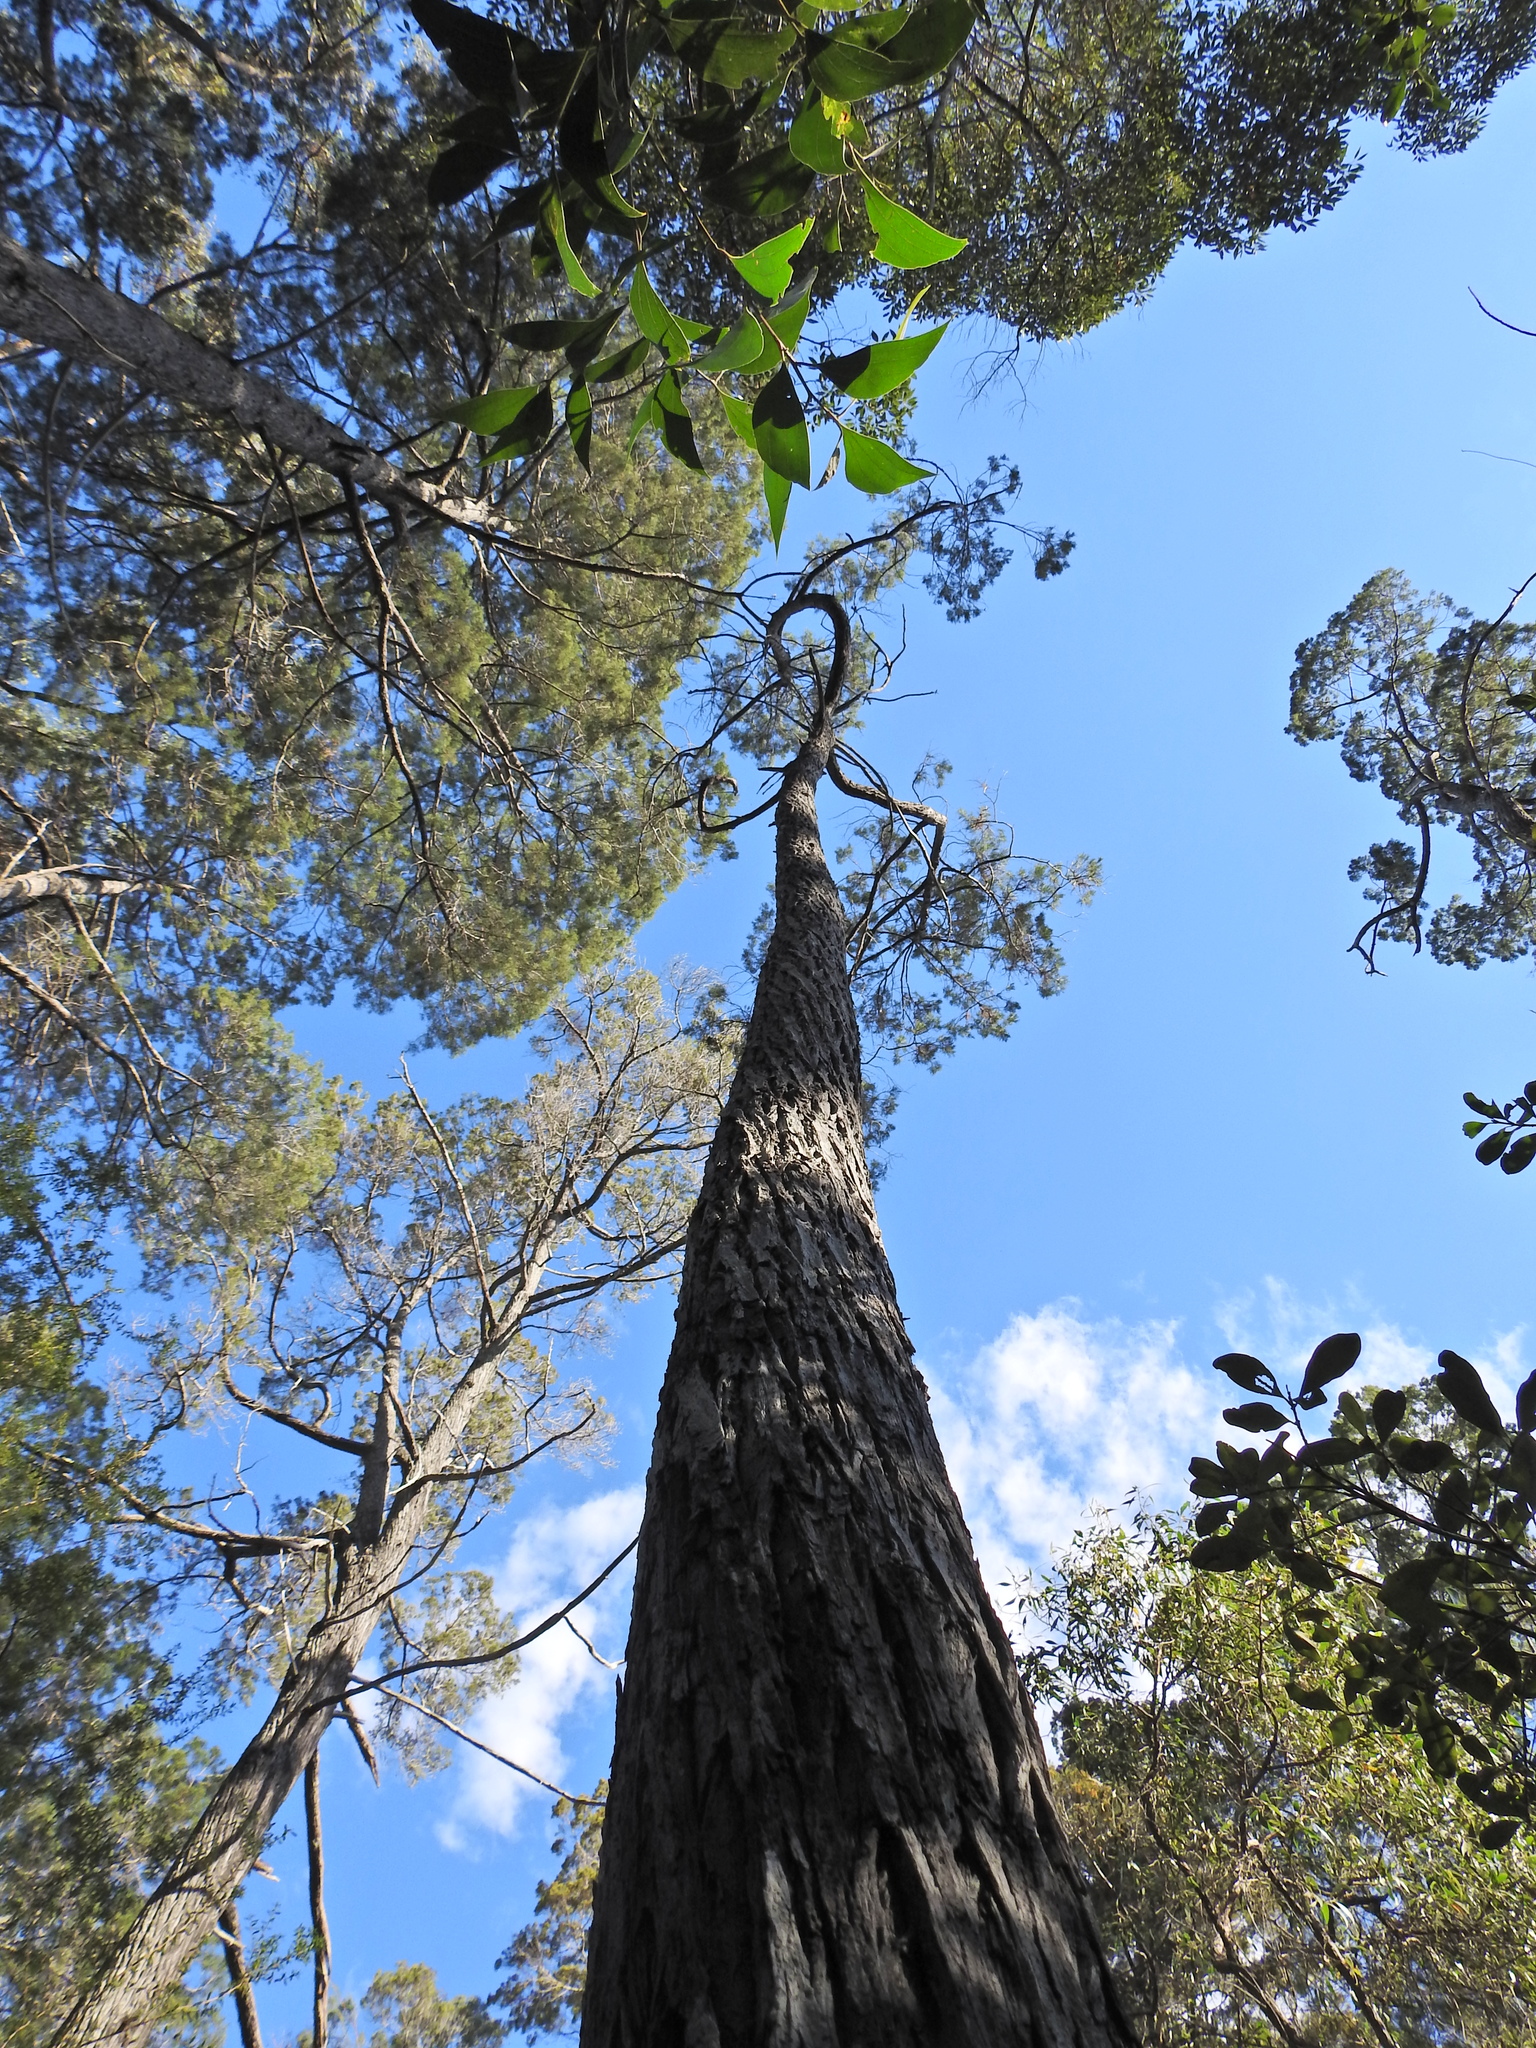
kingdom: Plantae
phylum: Tracheophyta
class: Pinopsida
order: Pinales
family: Cupressaceae
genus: Callitris
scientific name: Callitris columellaris
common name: White cypress-pine
